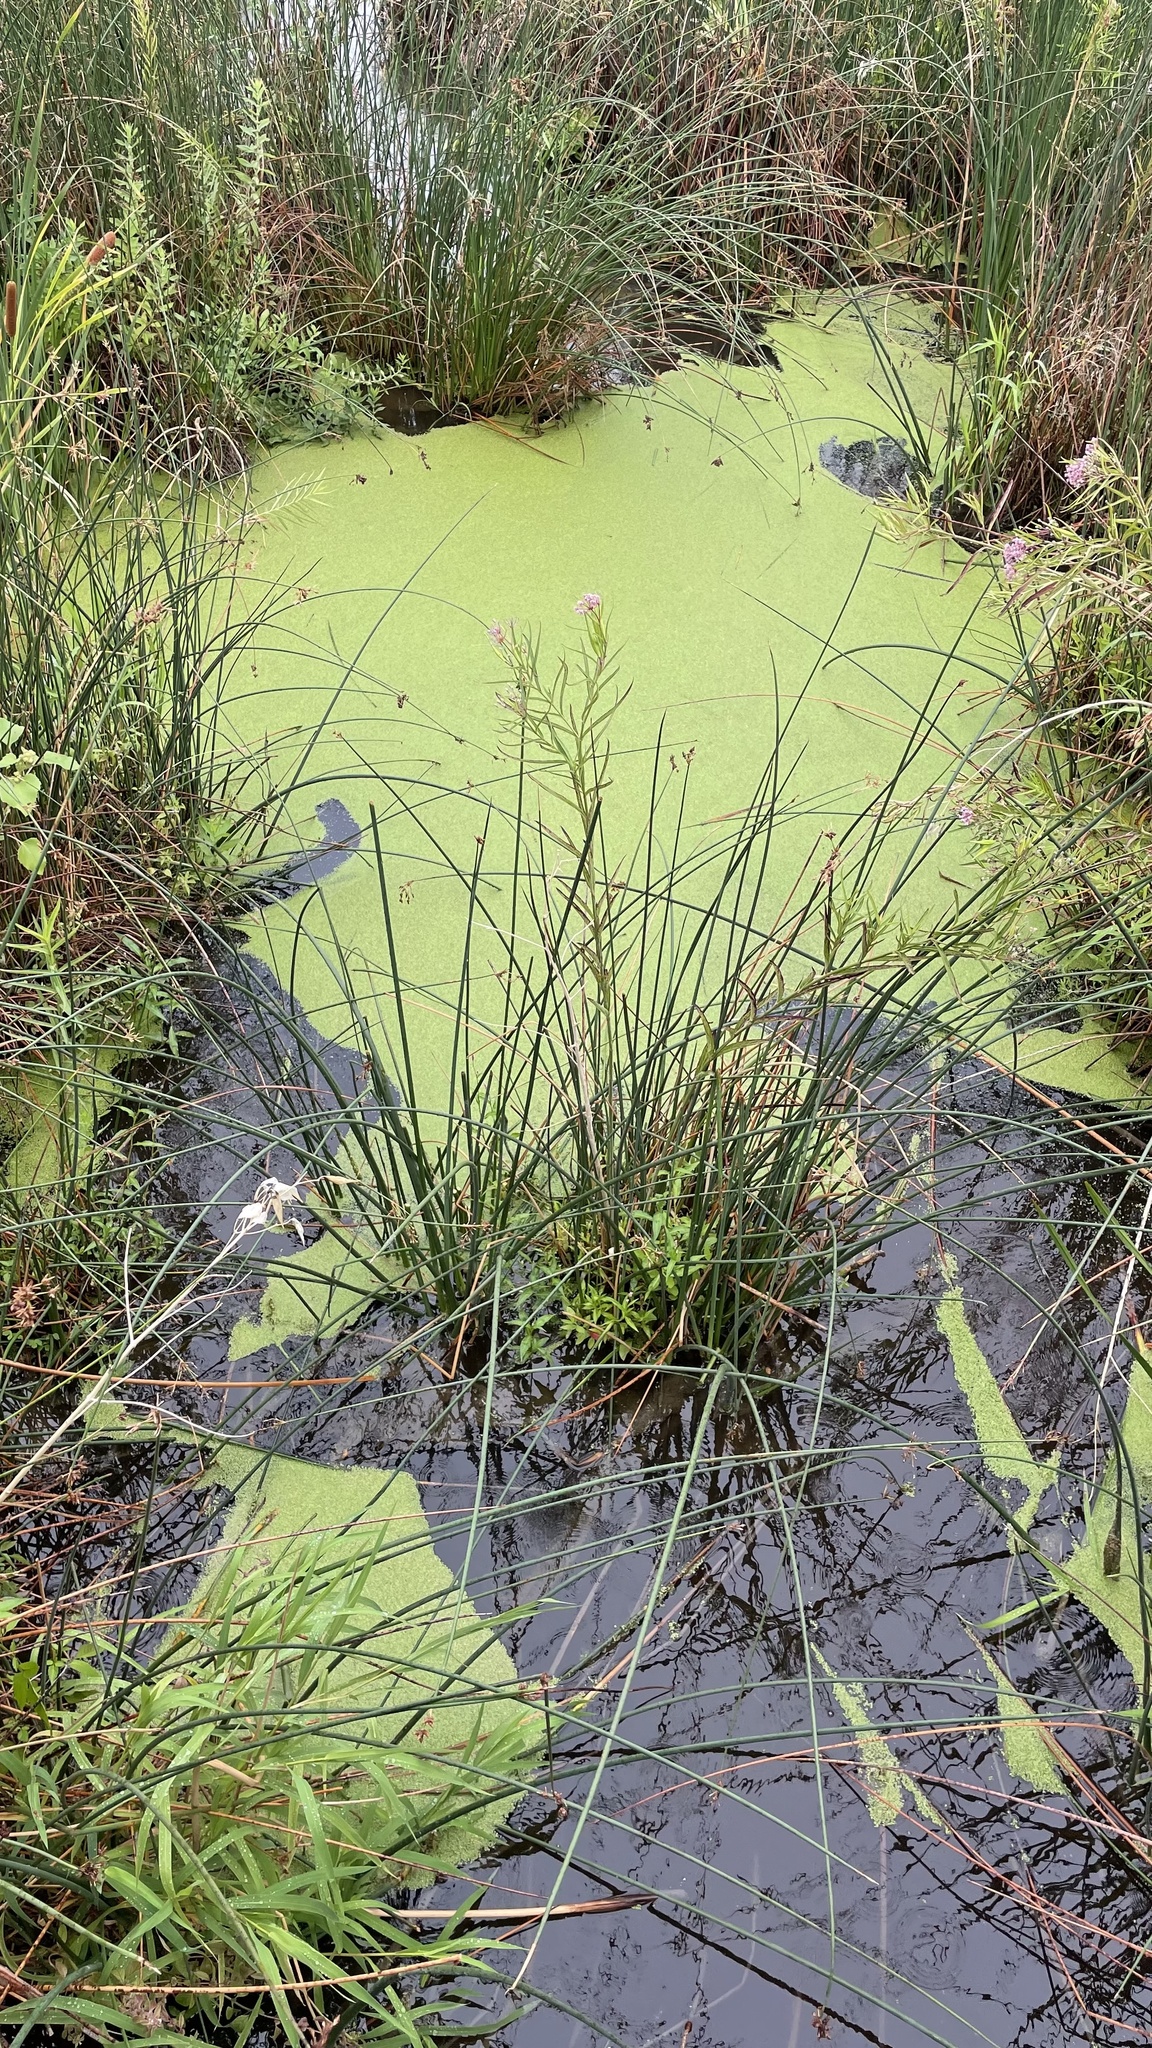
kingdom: Plantae
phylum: Tracheophyta
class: Magnoliopsida
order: Gentianales
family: Apocynaceae
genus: Asclepias
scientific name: Asclepias incarnata
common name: Swamp milkweed
